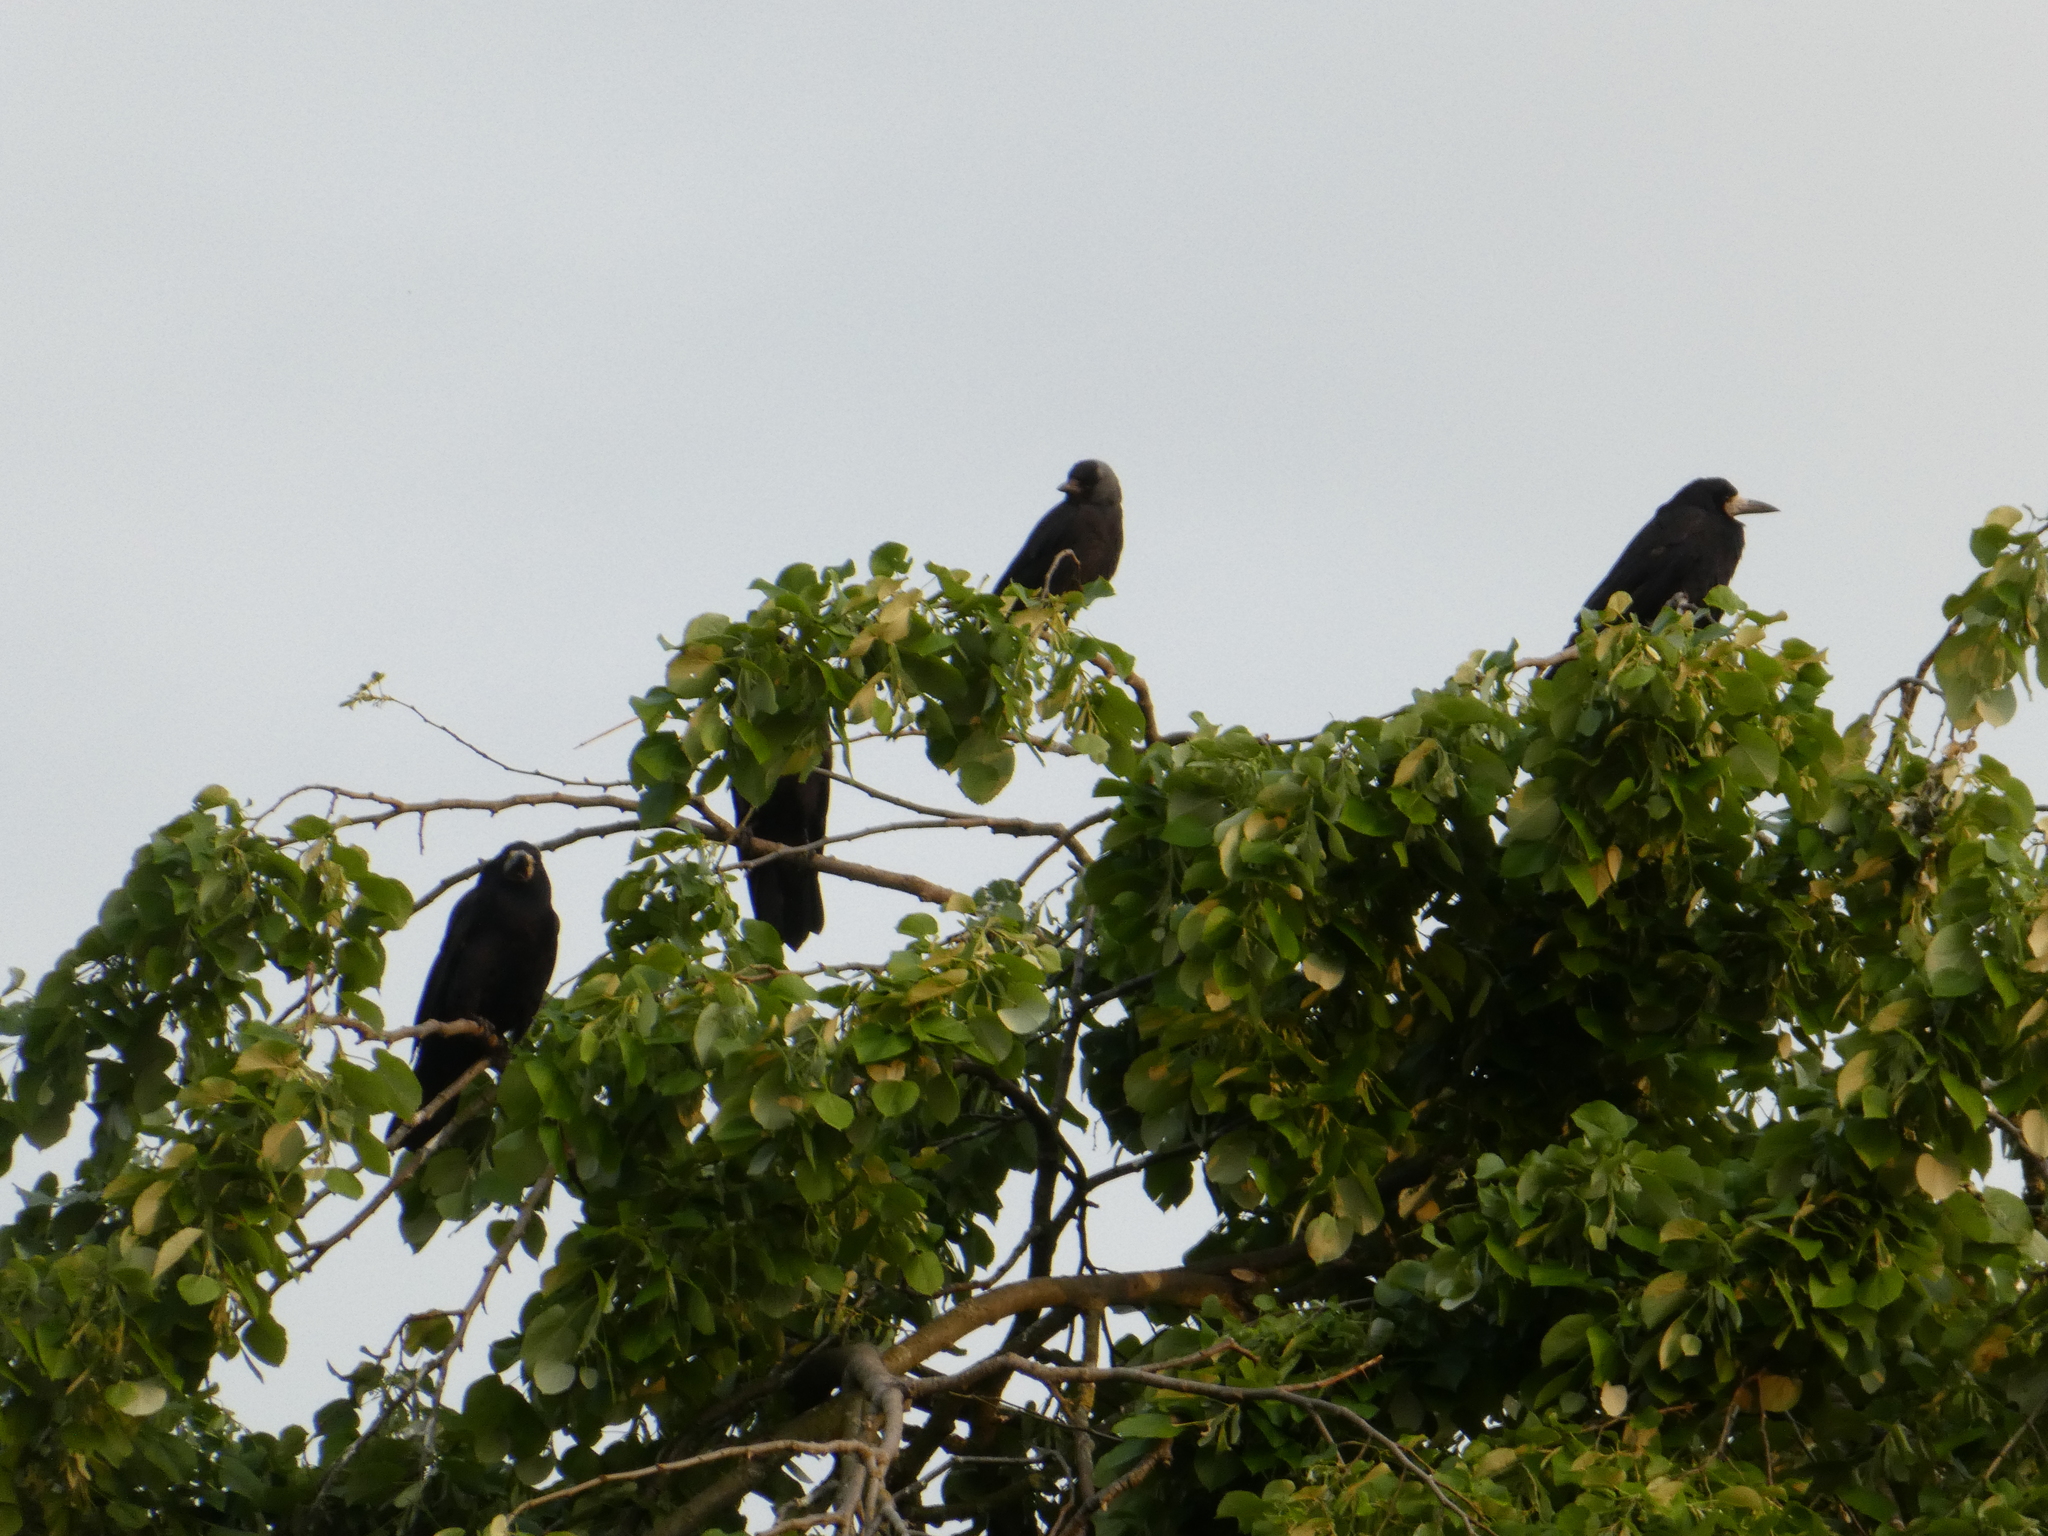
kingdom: Animalia
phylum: Chordata
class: Aves
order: Passeriformes
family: Corvidae
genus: Corvus
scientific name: Corvus frugilegus
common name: Rook
